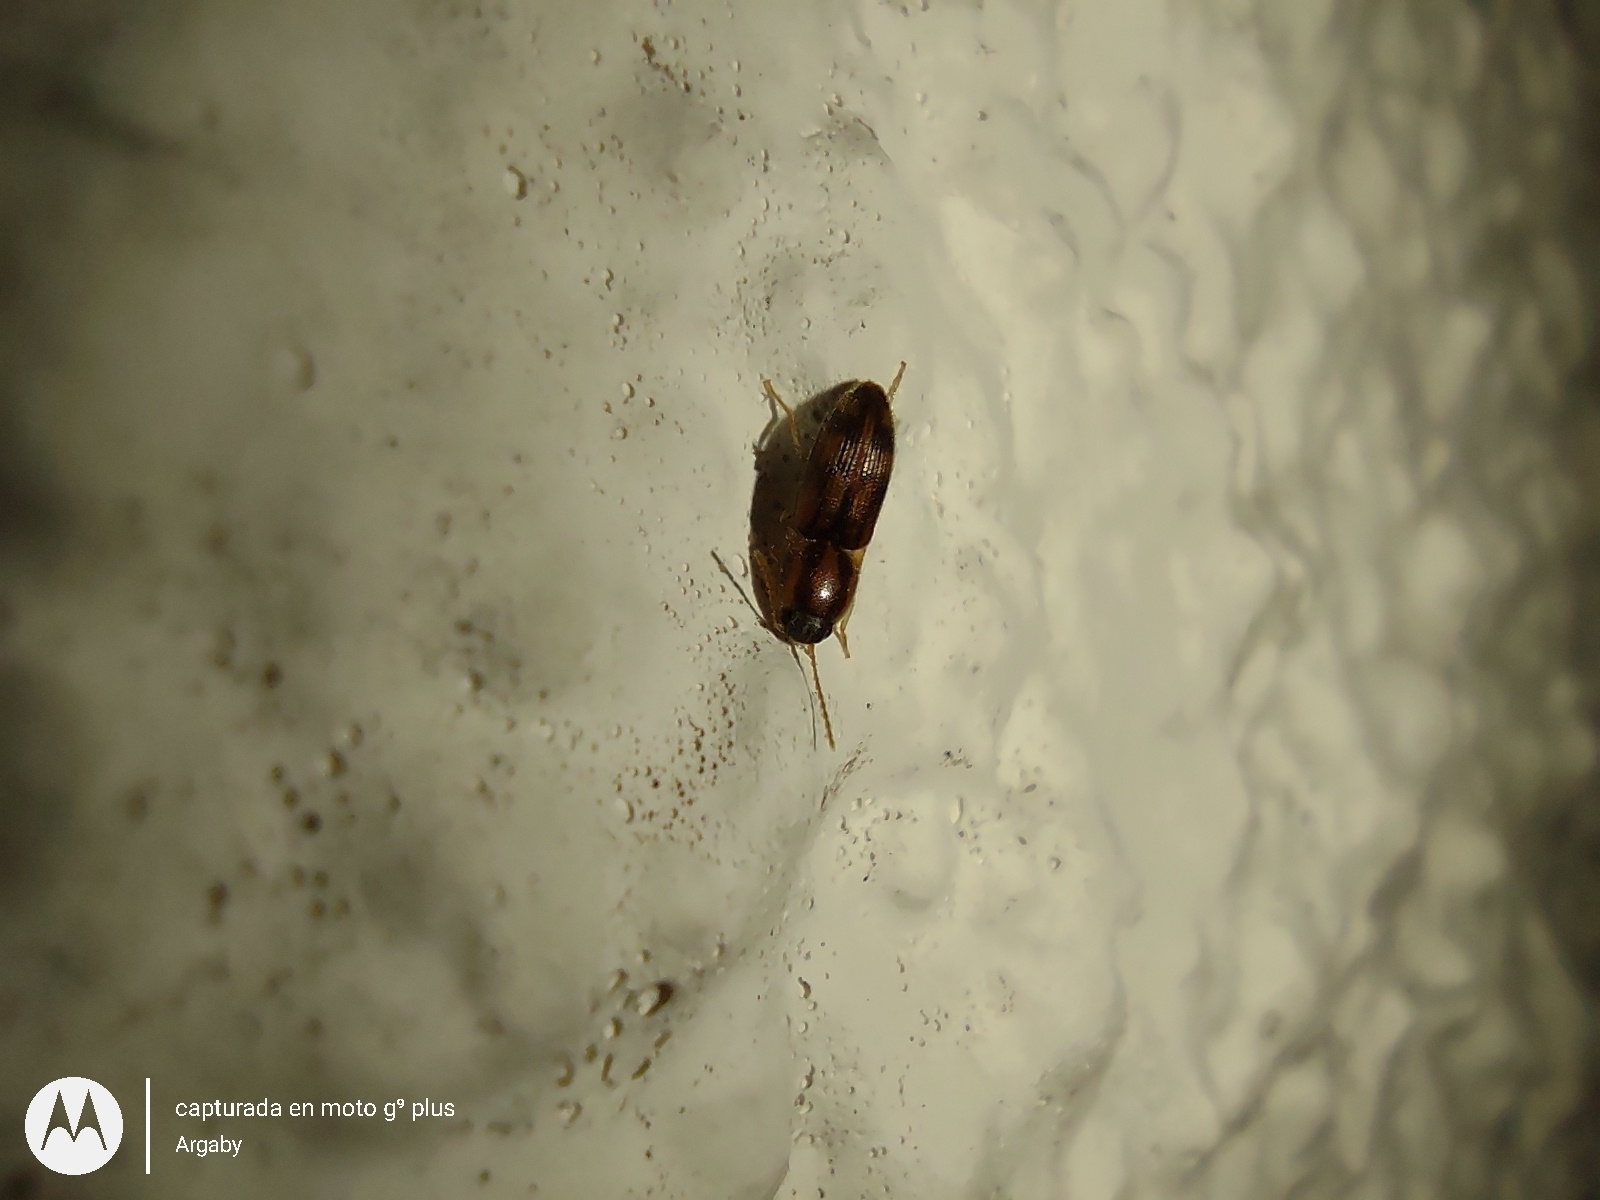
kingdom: Animalia
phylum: Arthropoda
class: Insecta
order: Coleoptera
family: Elateridae
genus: Monocrepidius
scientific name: Monocrepidius bellus
